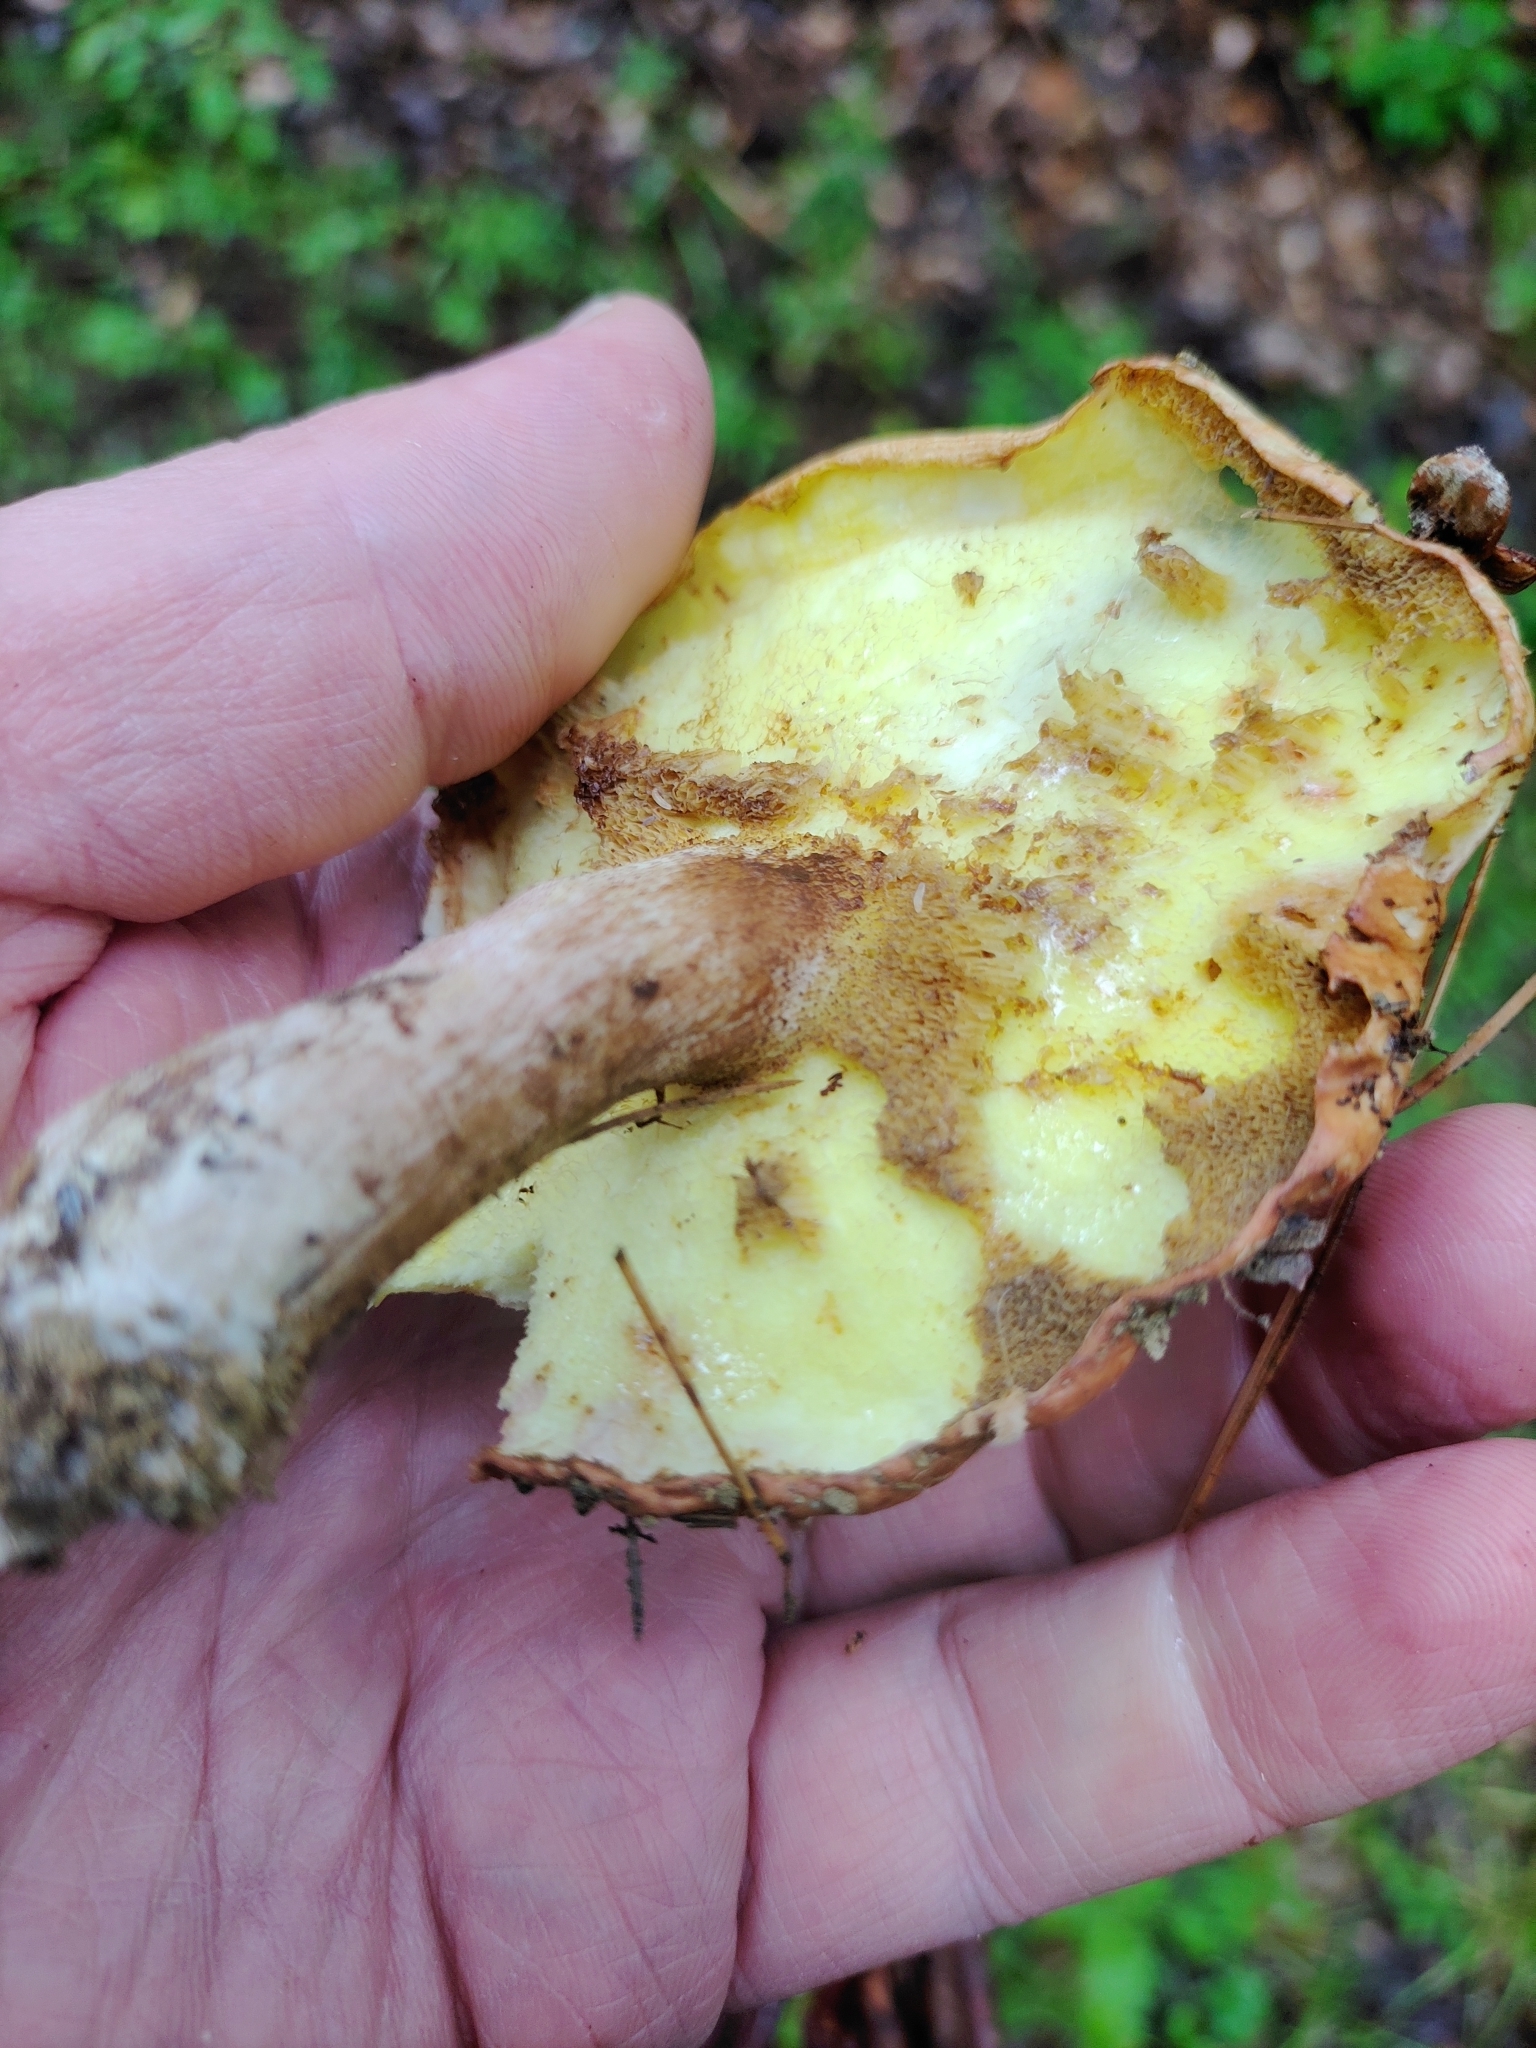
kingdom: Fungi
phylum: Basidiomycota
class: Agaricomycetes
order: Boletales
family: Suillaceae
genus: Fuscoboletinus
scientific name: Fuscoboletinus weaverae
